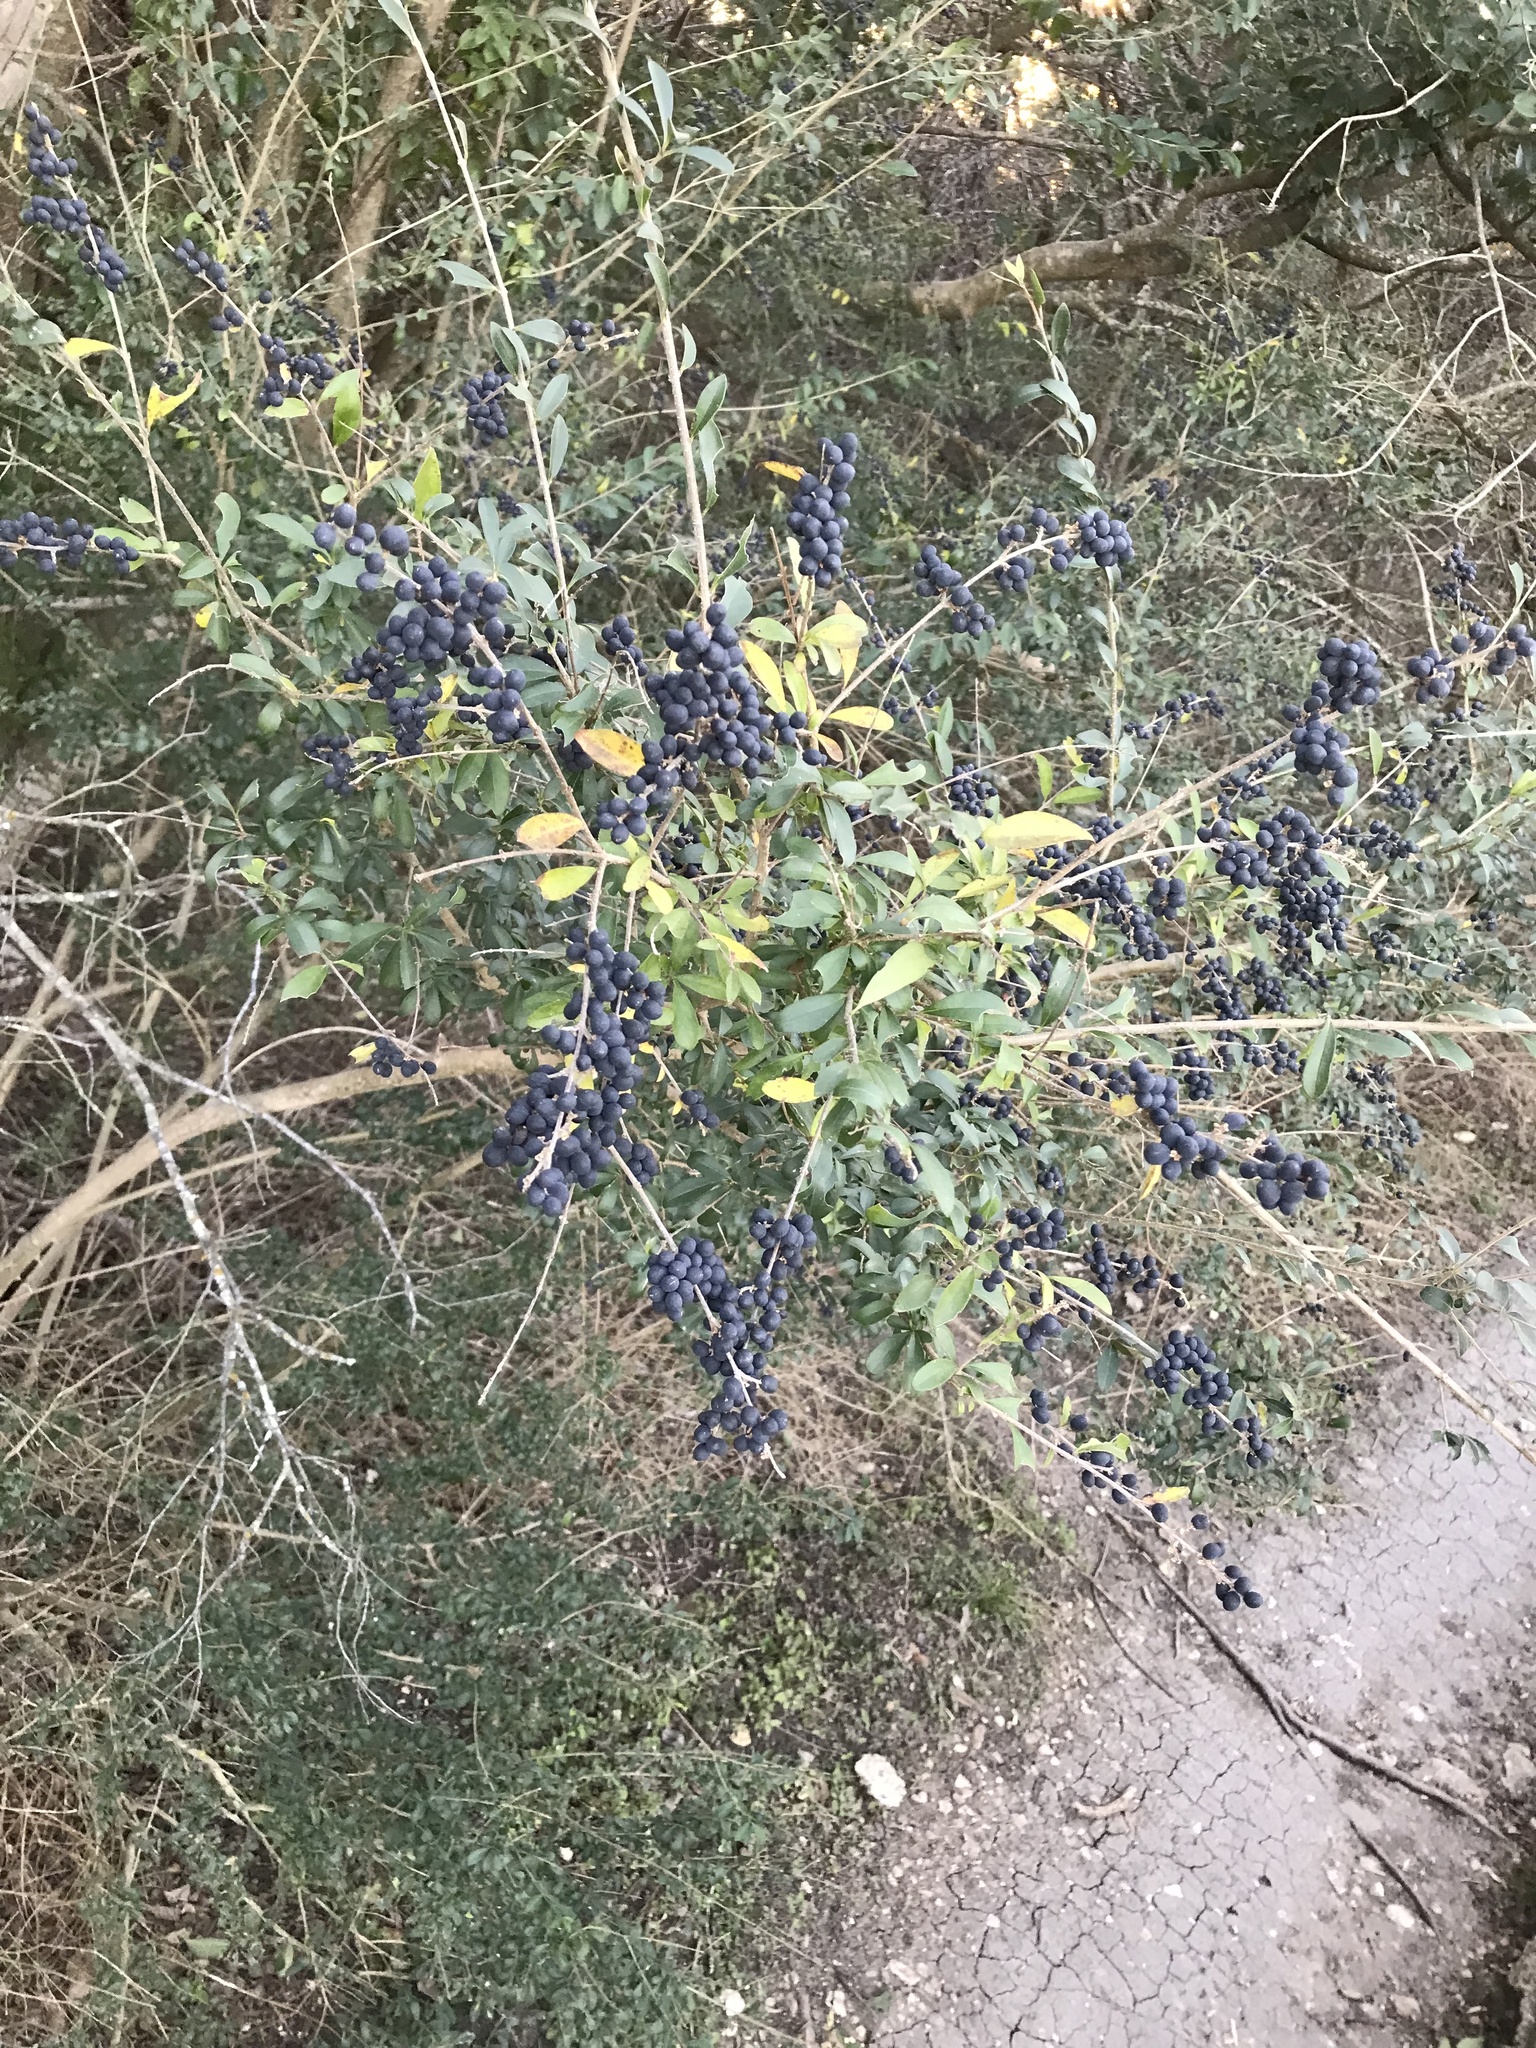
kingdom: Plantae
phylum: Tracheophyta
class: Magnoliopsida
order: Lamiales
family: Oleaceae
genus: Ligustrum
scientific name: Ligustrum quihoui
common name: Waxyleaf privet
